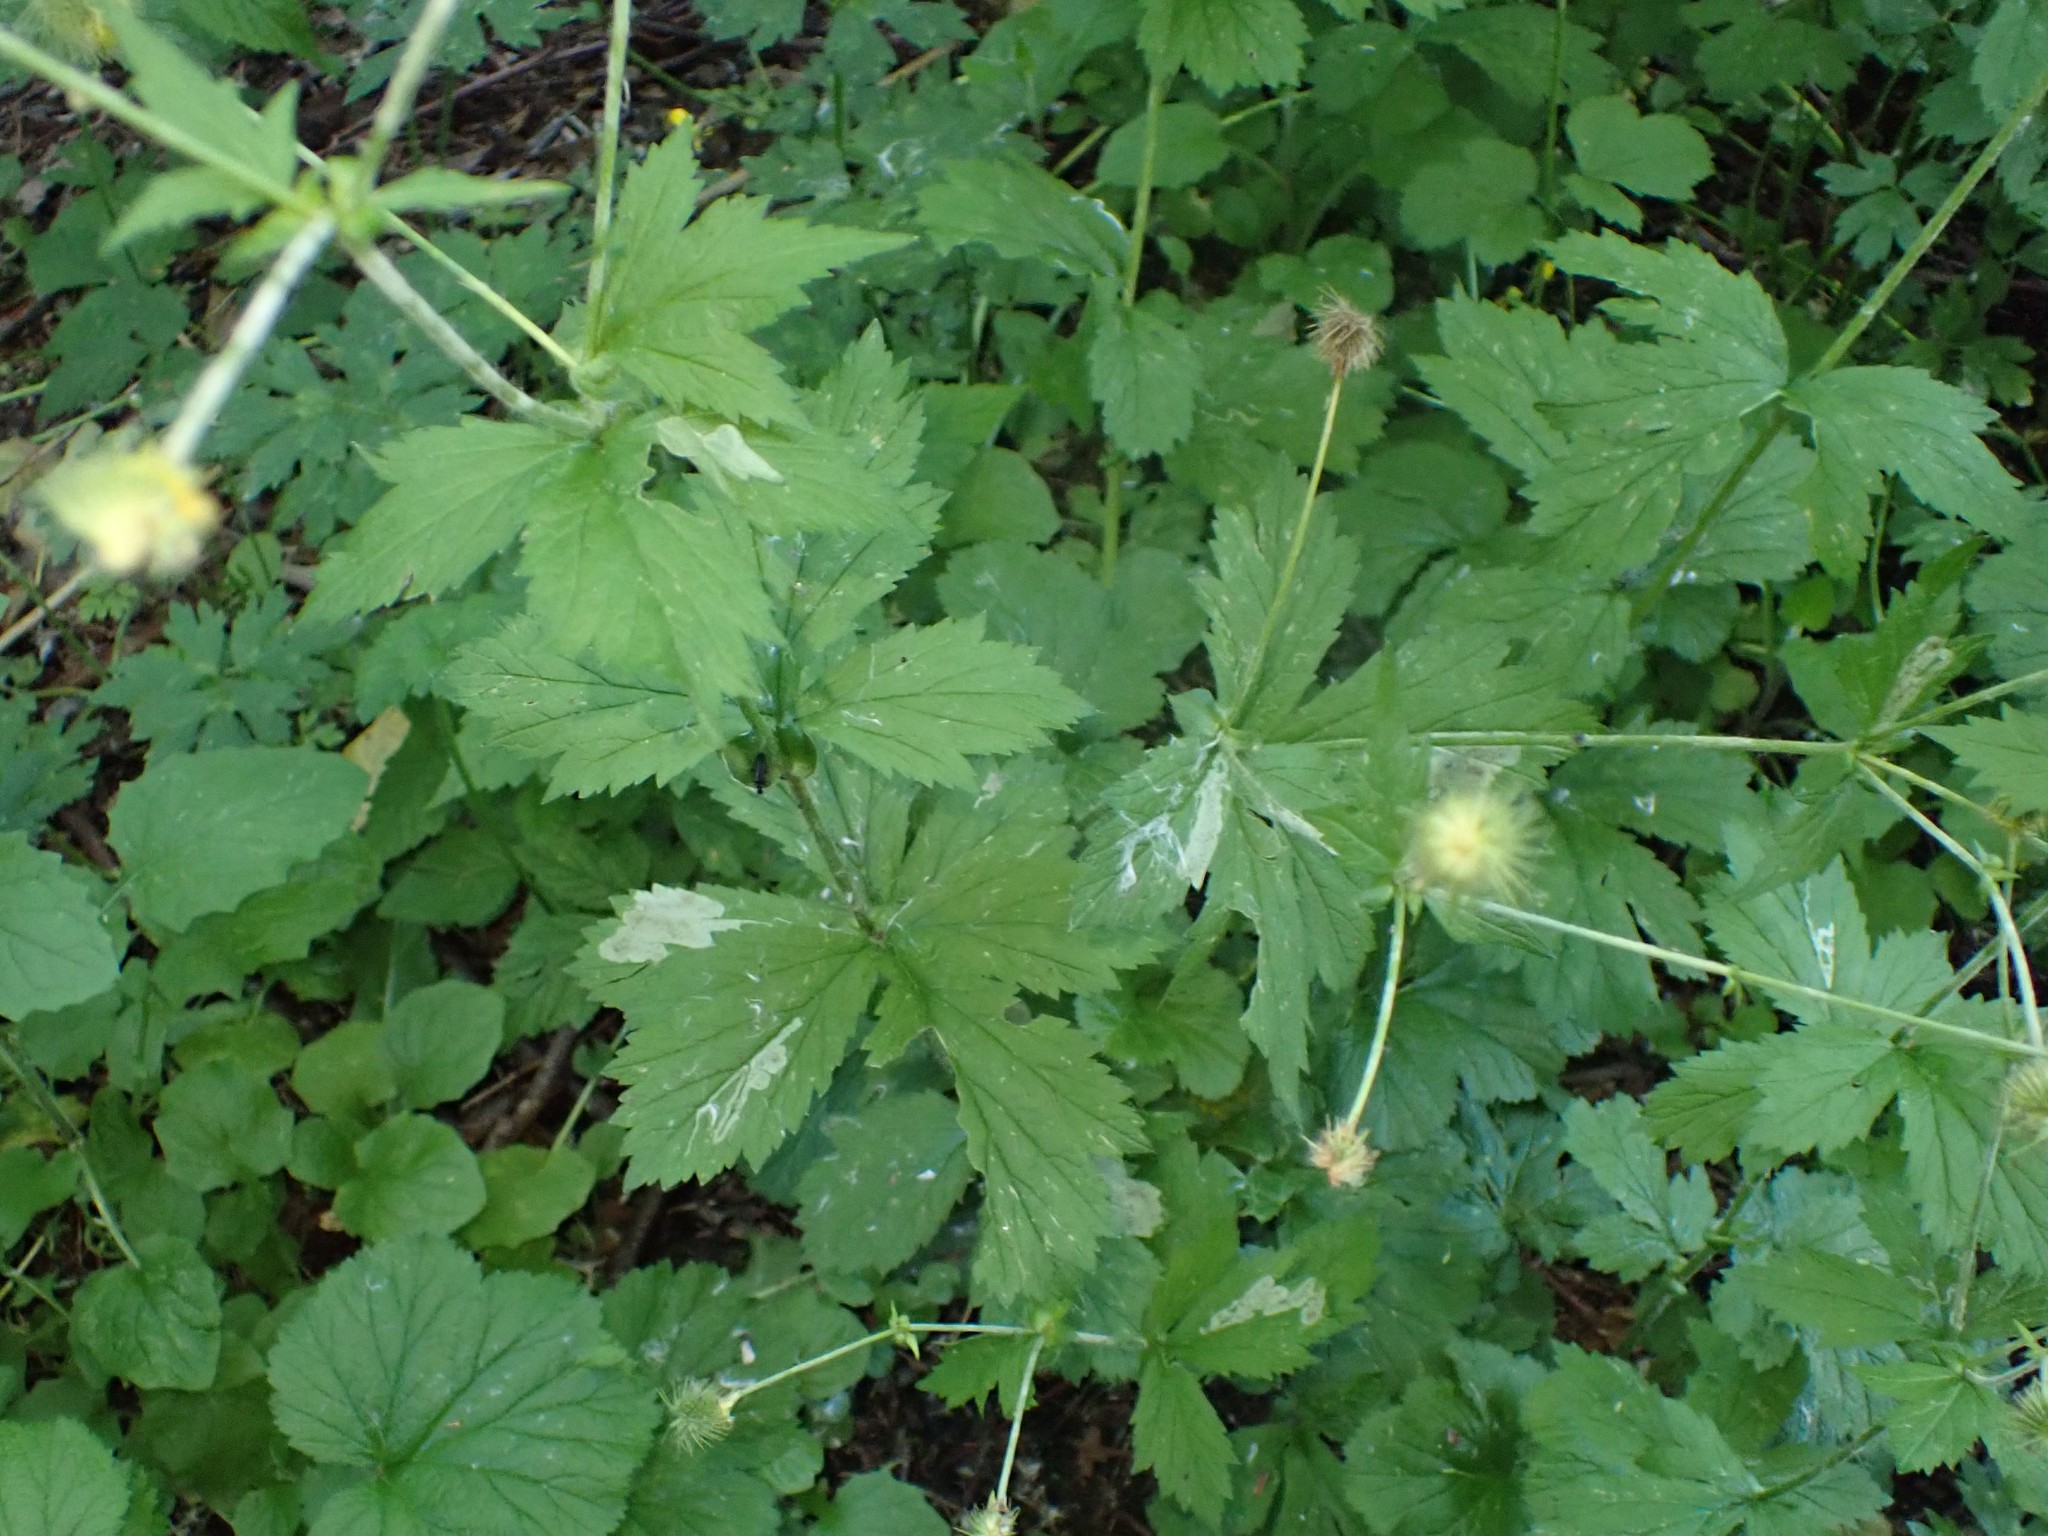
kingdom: Animalia
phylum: Arthropoda
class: Insecta
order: Diptera
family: Agromyzidae
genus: Agromyza
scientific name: Agromyza idaeiana
